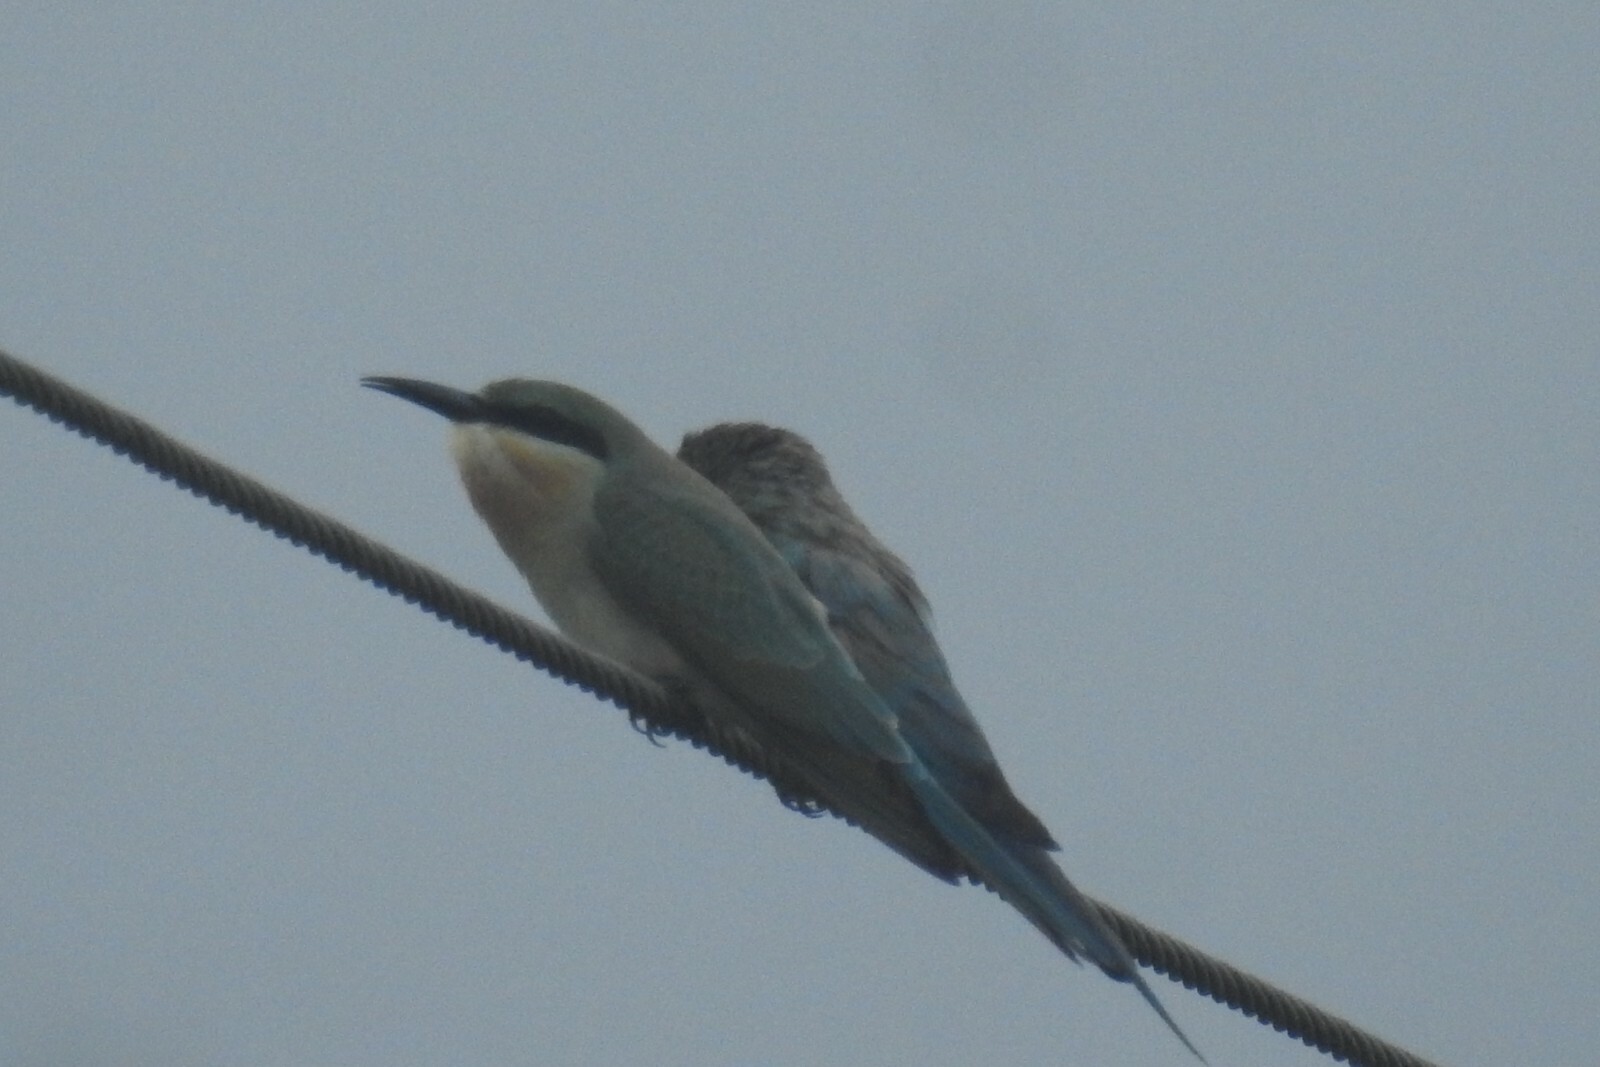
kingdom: Animalia
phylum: Chordata
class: Aves
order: Coraciiformes
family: Meropidae
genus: Merops
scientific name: Merops philippinus
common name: Blue-tailed bee-eater
